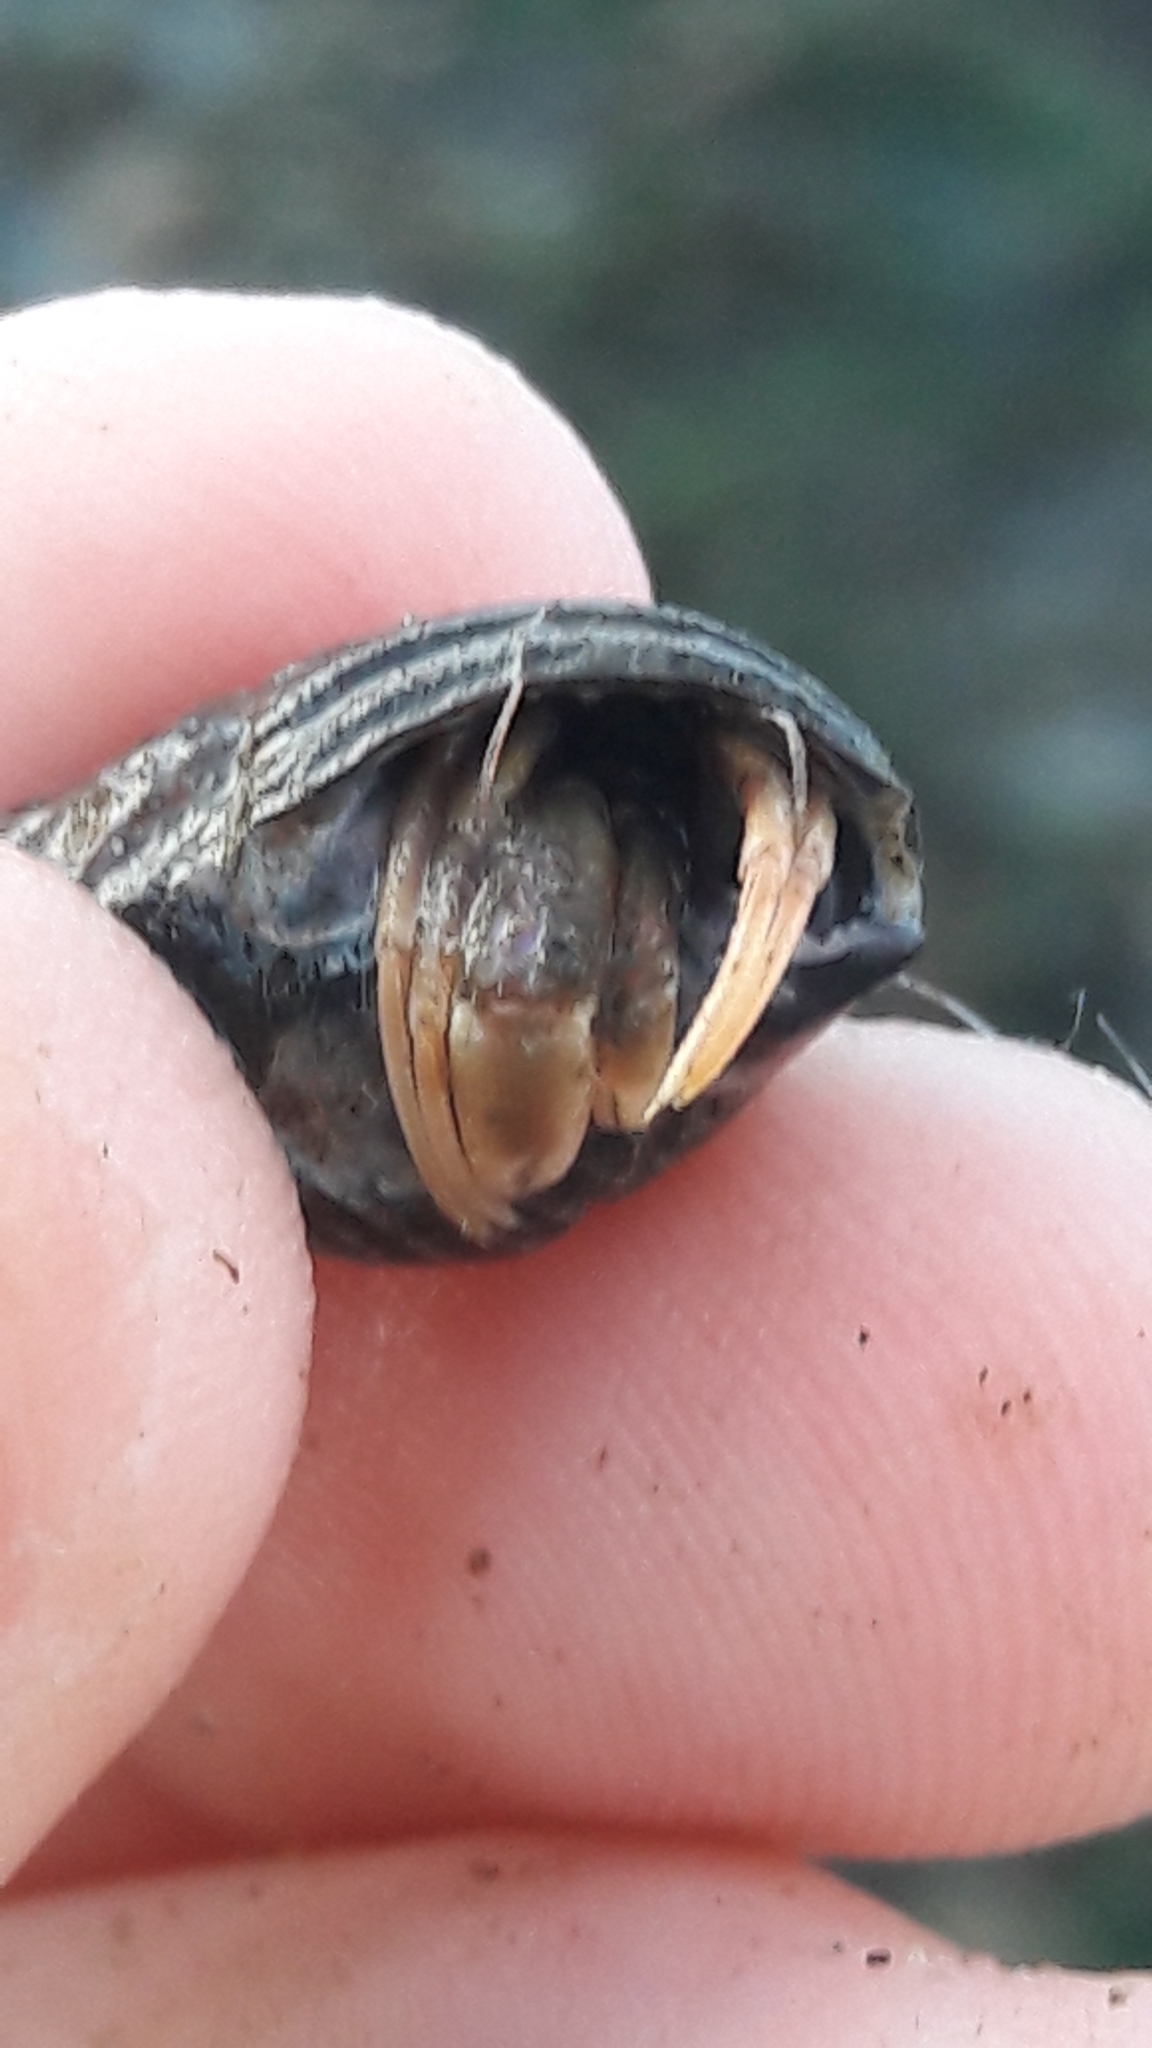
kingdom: Animalia
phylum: Arthropoda
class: Malacostraca
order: Decapoda
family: Paguridae
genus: Pagurus
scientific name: Pagurus longicarpus
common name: Long-armed hermit crab
